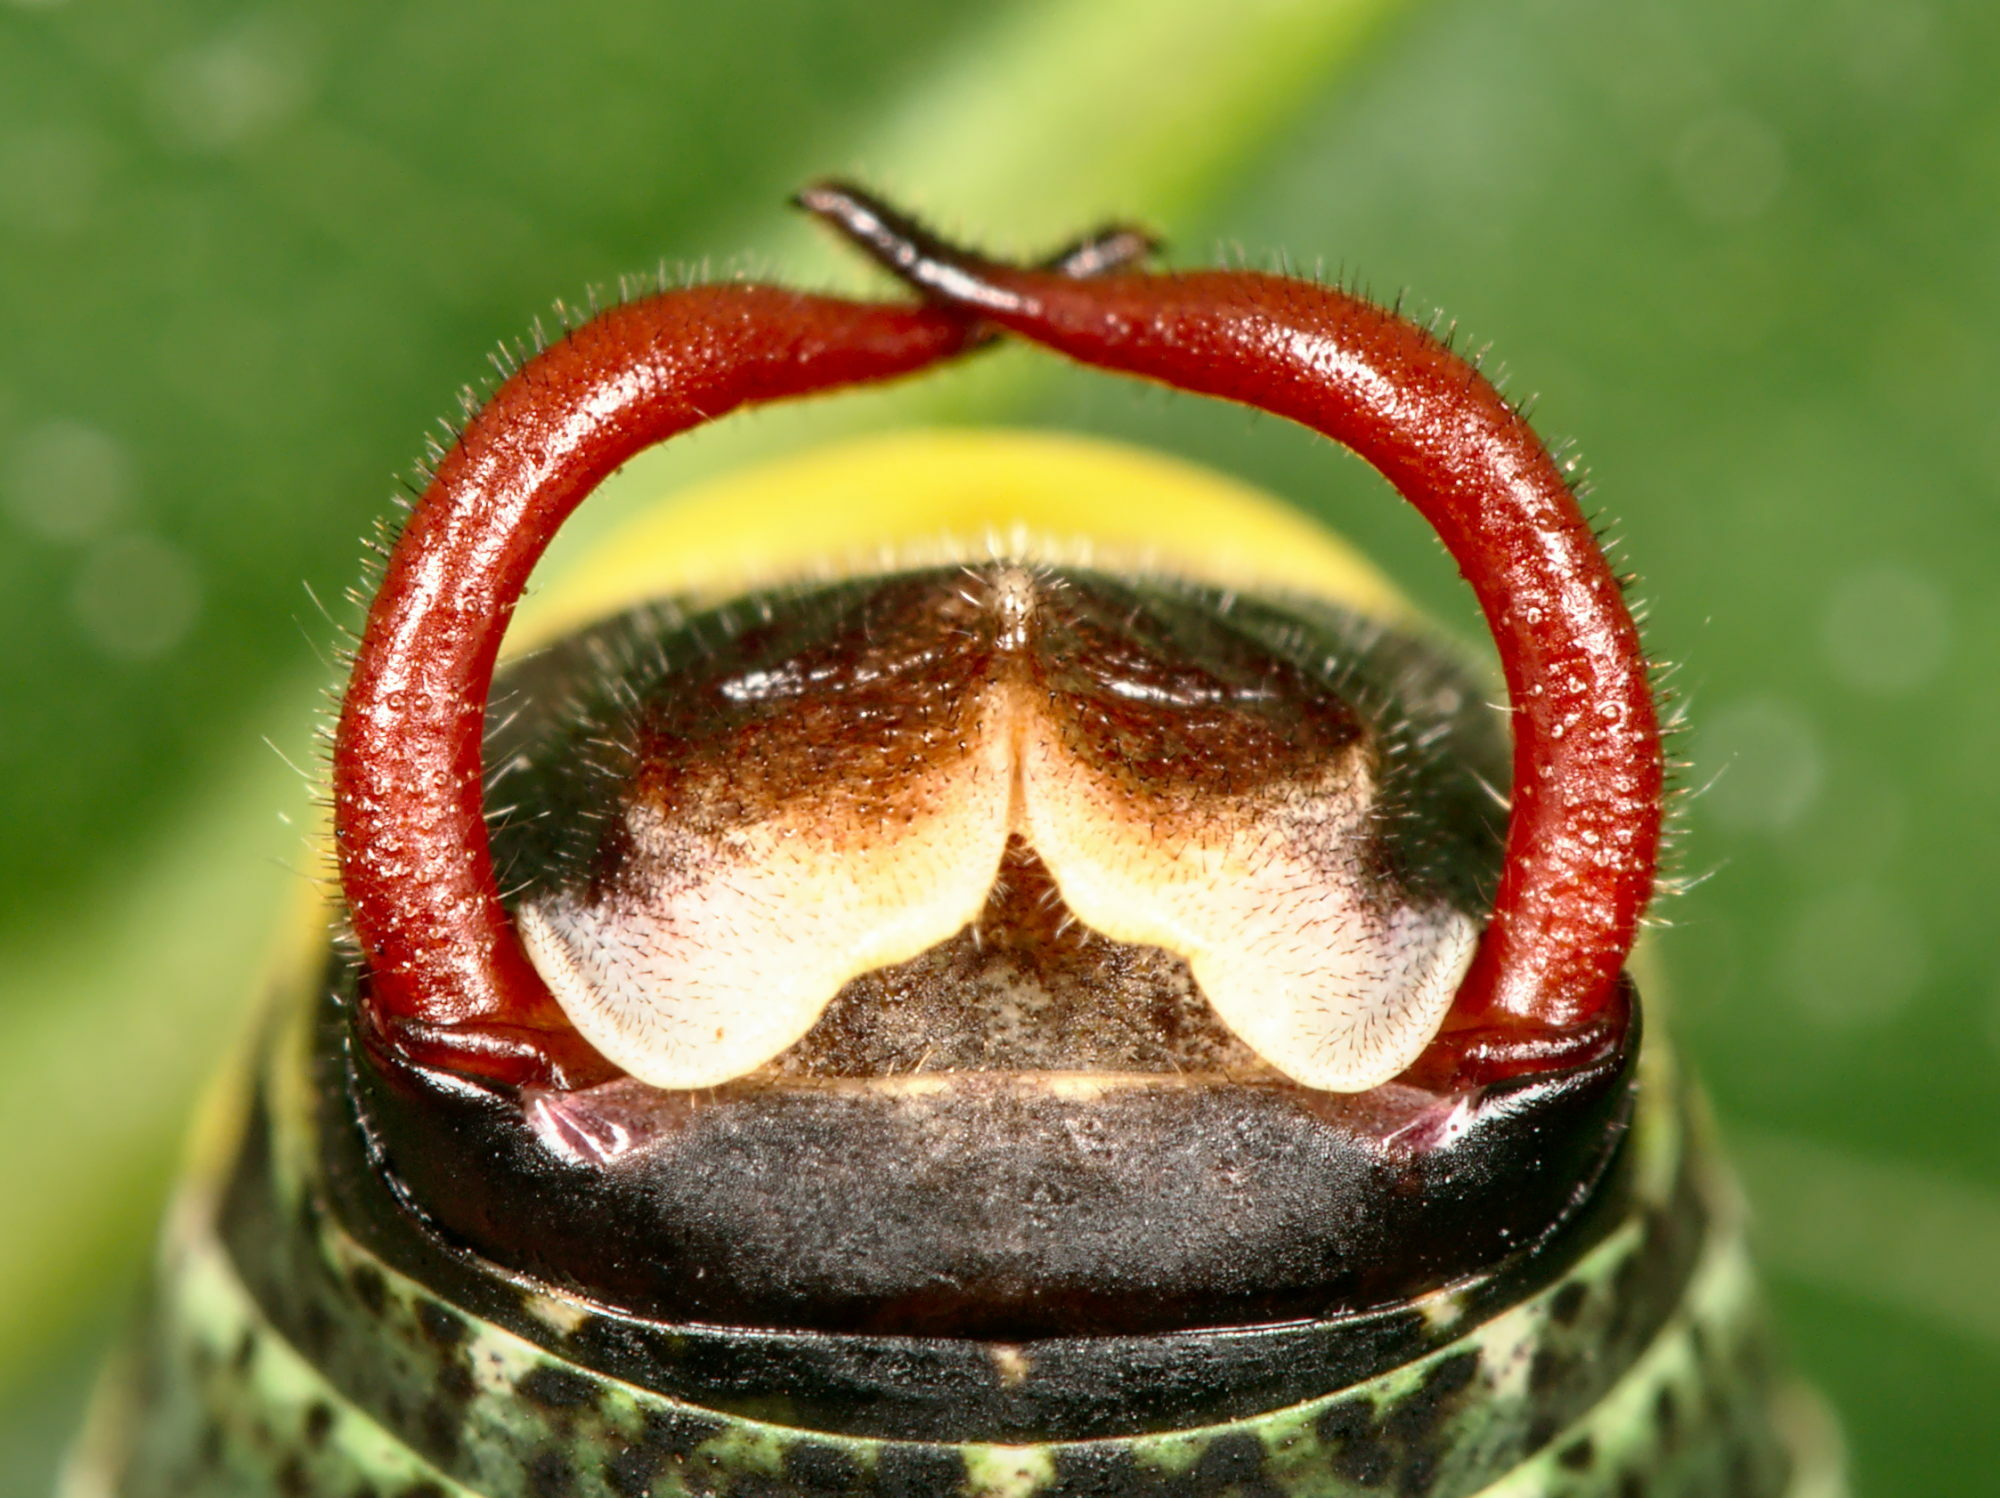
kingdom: Animalia
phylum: Arthropoda
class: Insecta
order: Orthoptera
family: Tettigoniidae
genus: Barbitistes
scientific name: Barbitistes obtusus
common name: Alpine saw bush-cricket
